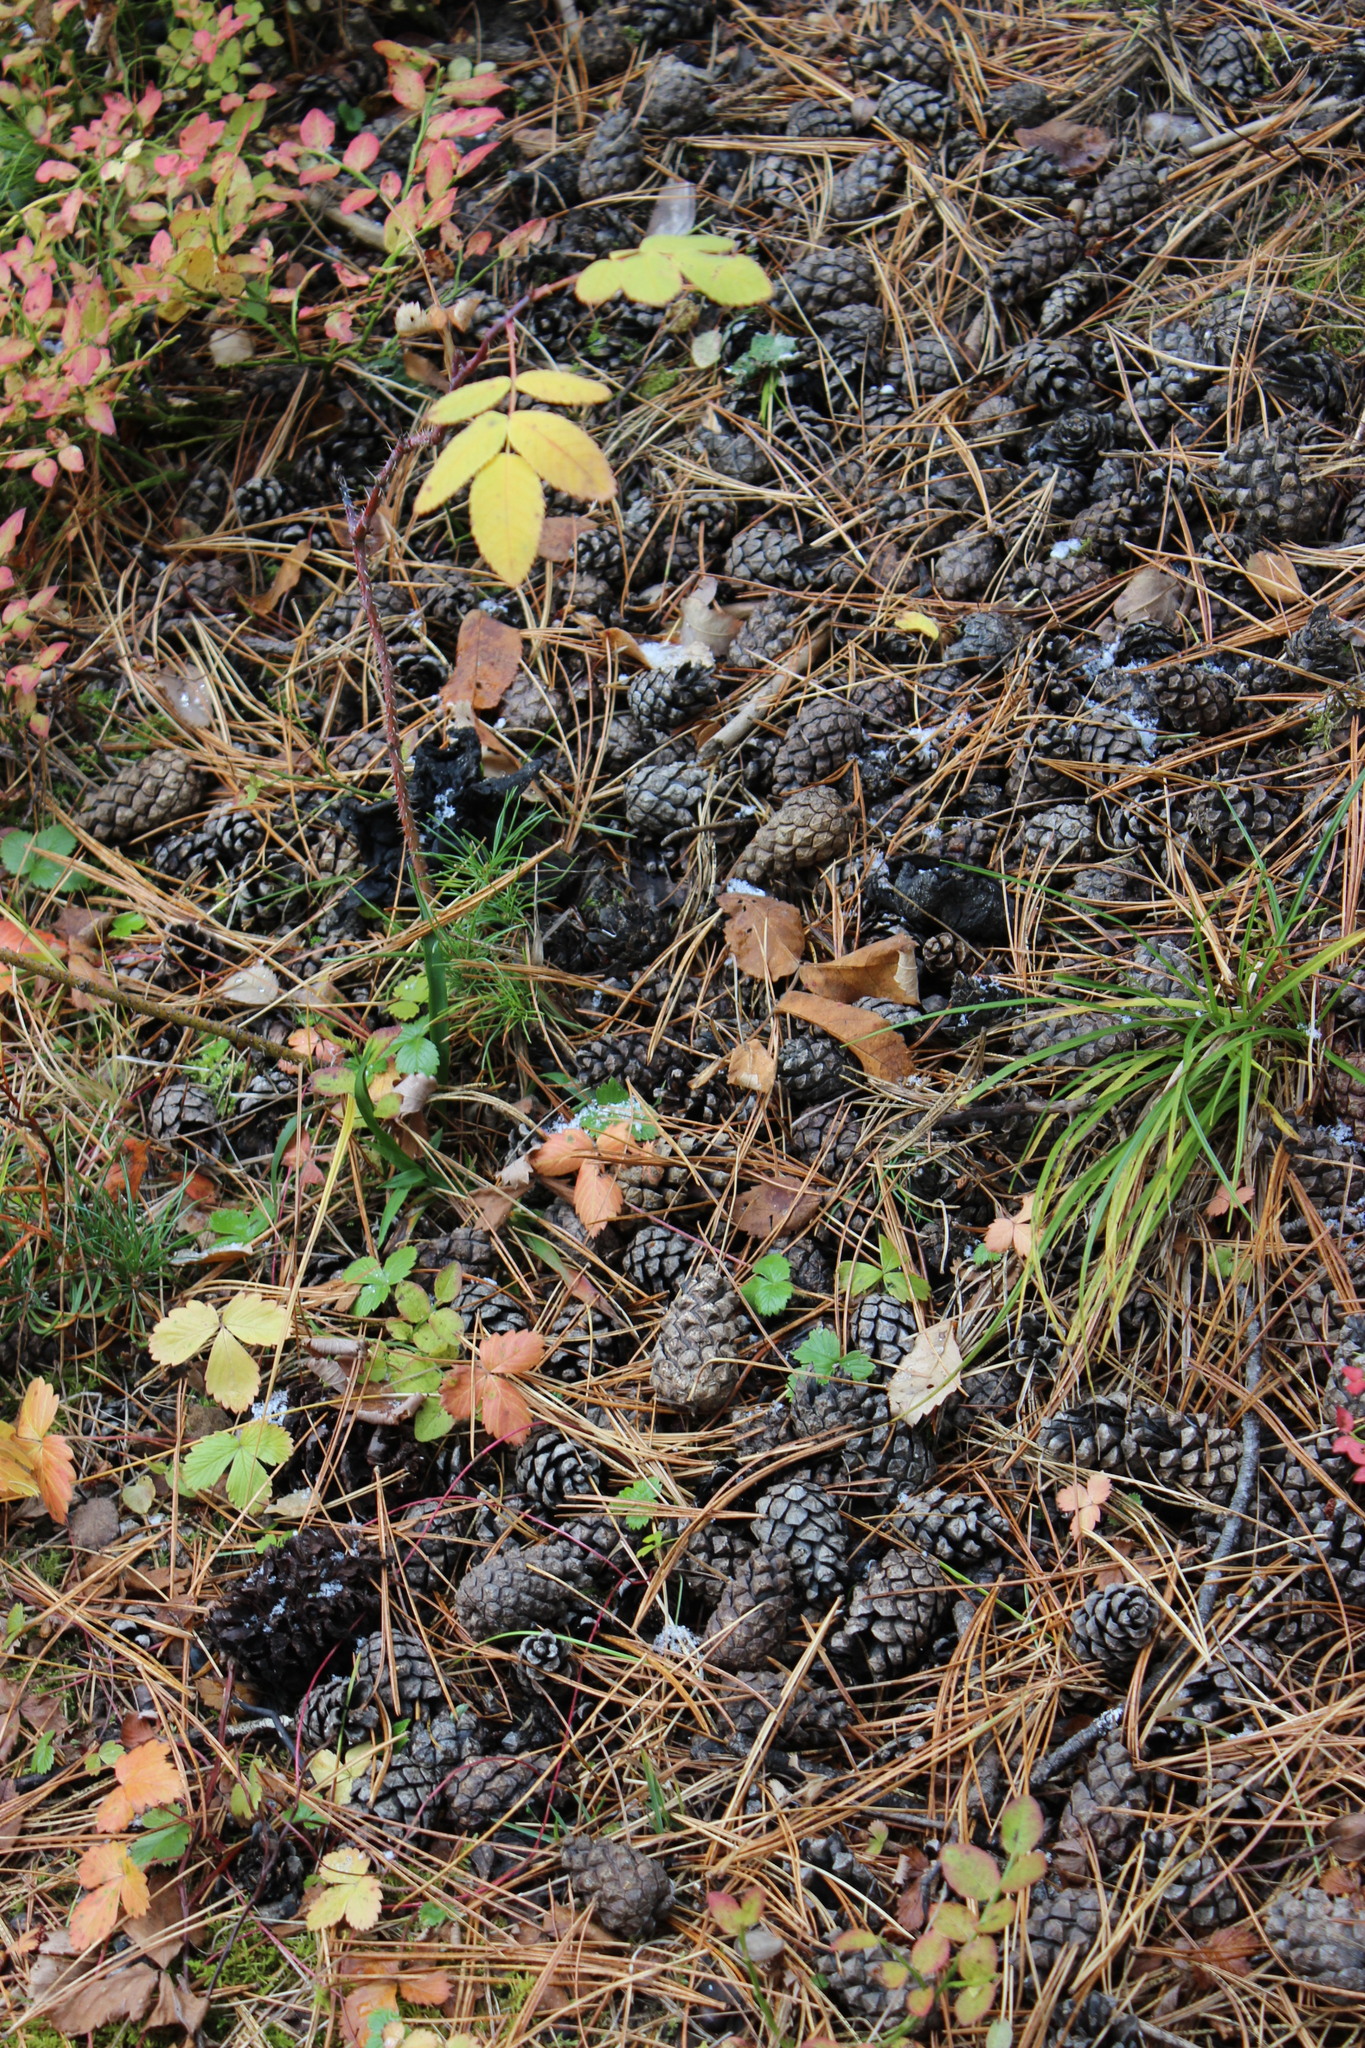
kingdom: Plantae
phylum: Tracheophyta
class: Pinopsida
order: Pinales
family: Pinaceae
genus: Pinus
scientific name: Pinus sylvestris
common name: Scots pine
